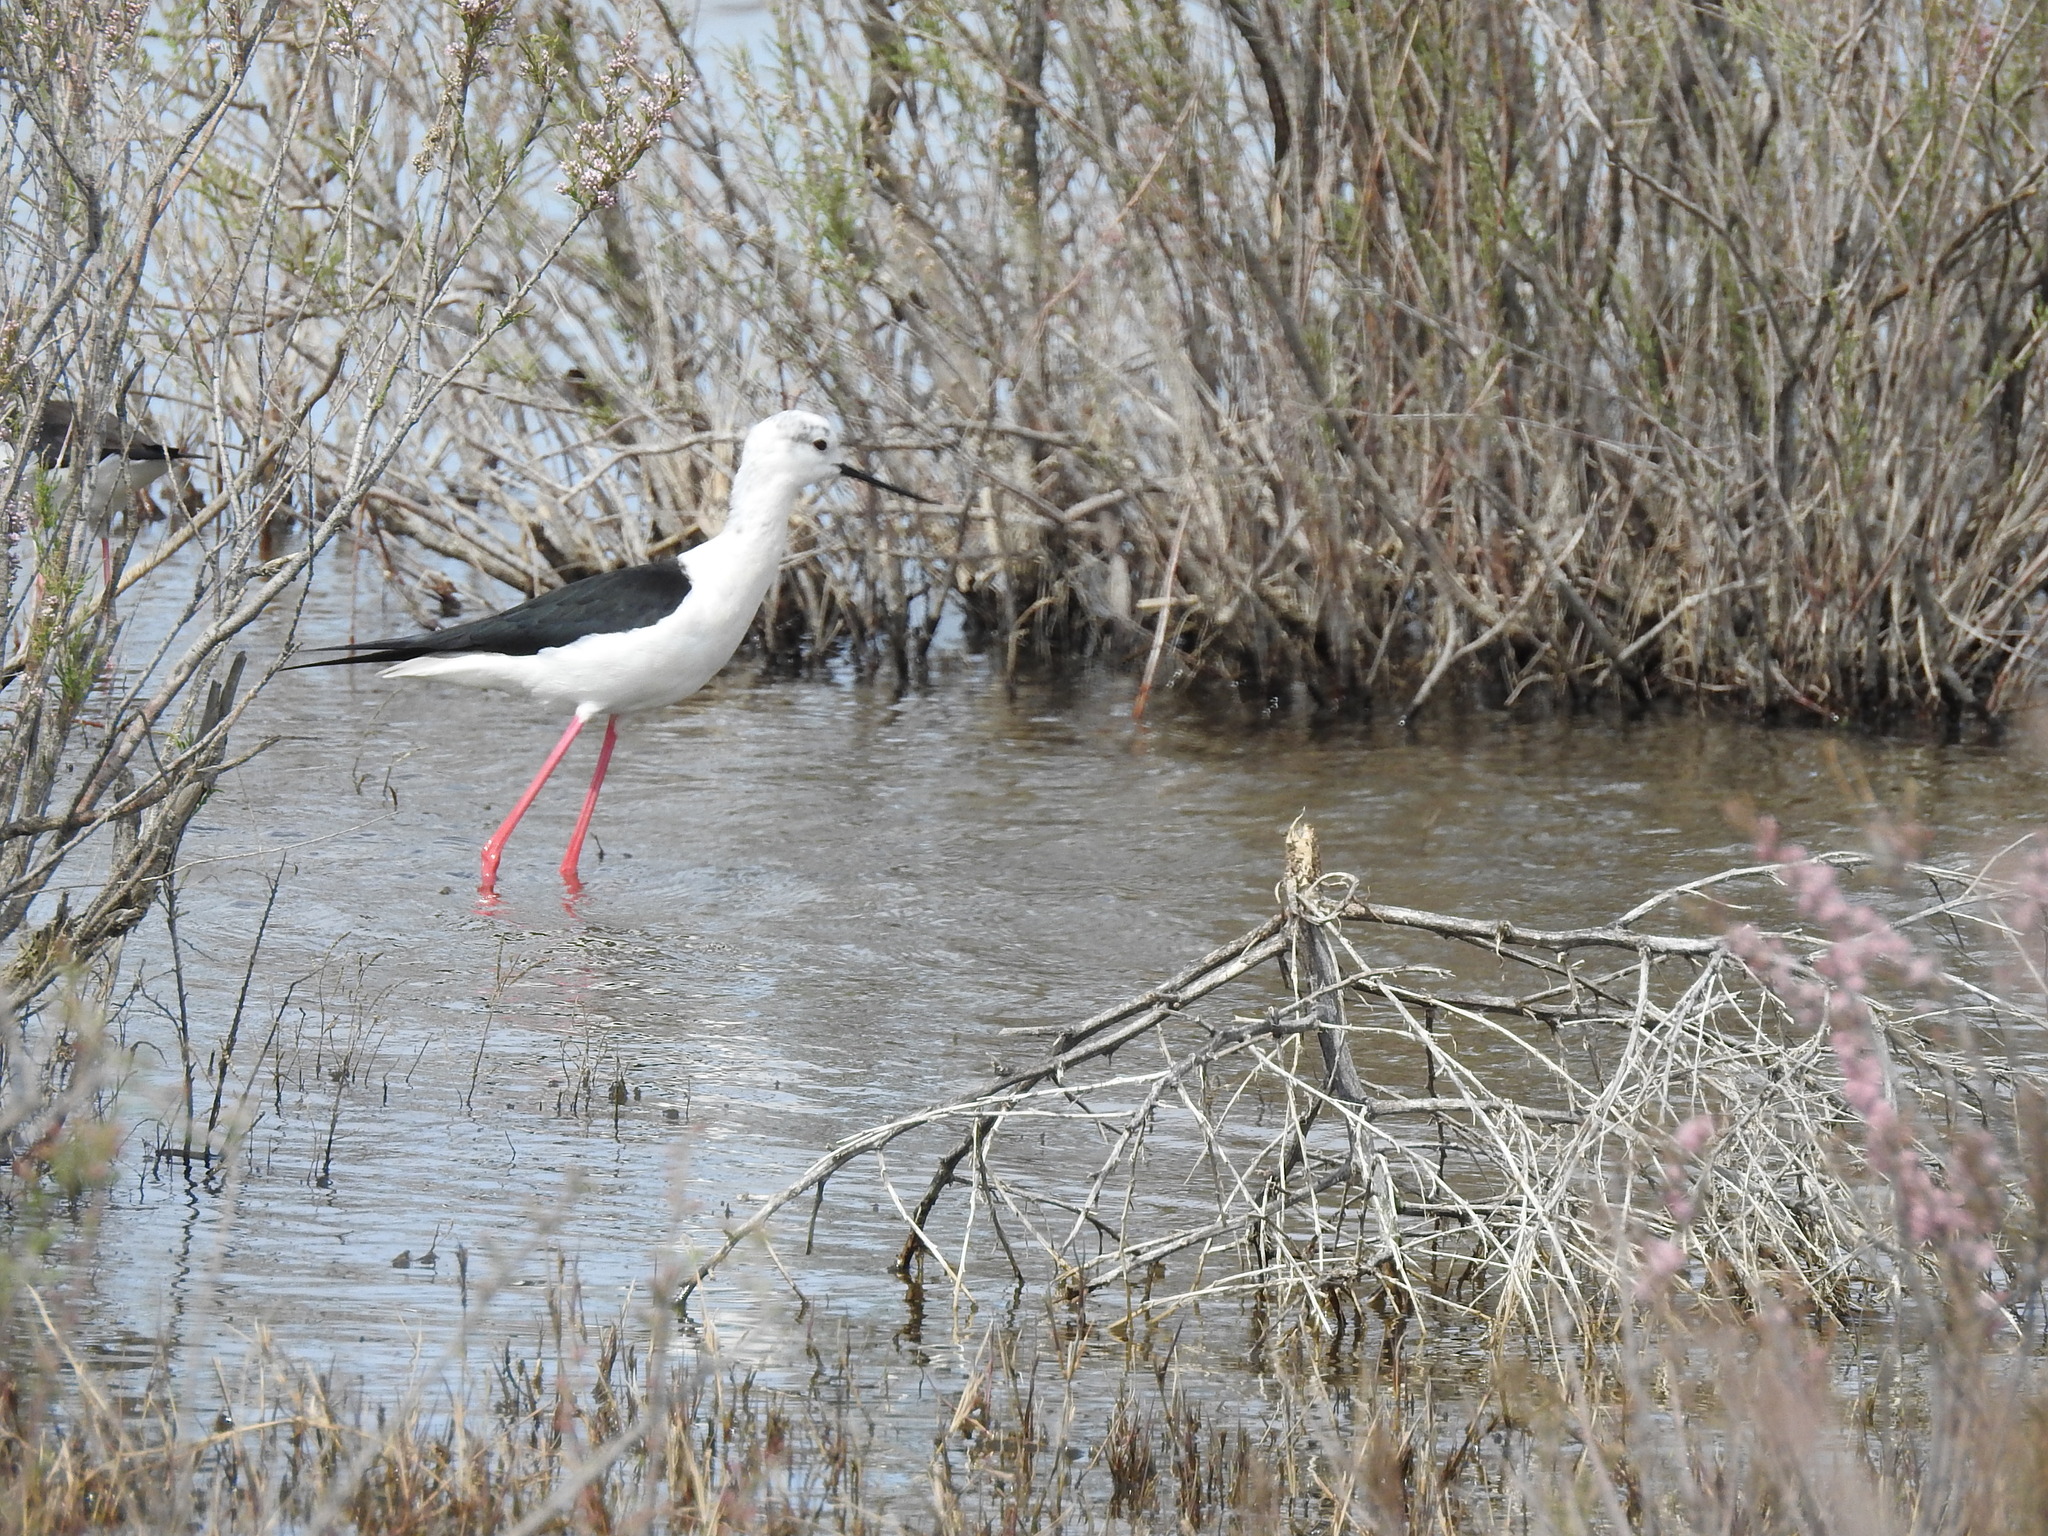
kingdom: Animalia
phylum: Chordata
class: Aves
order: Charadriiformes
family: Recurvirostridae
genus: Himantopus
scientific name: Himantopus himantopus
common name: Black-winged stilt
